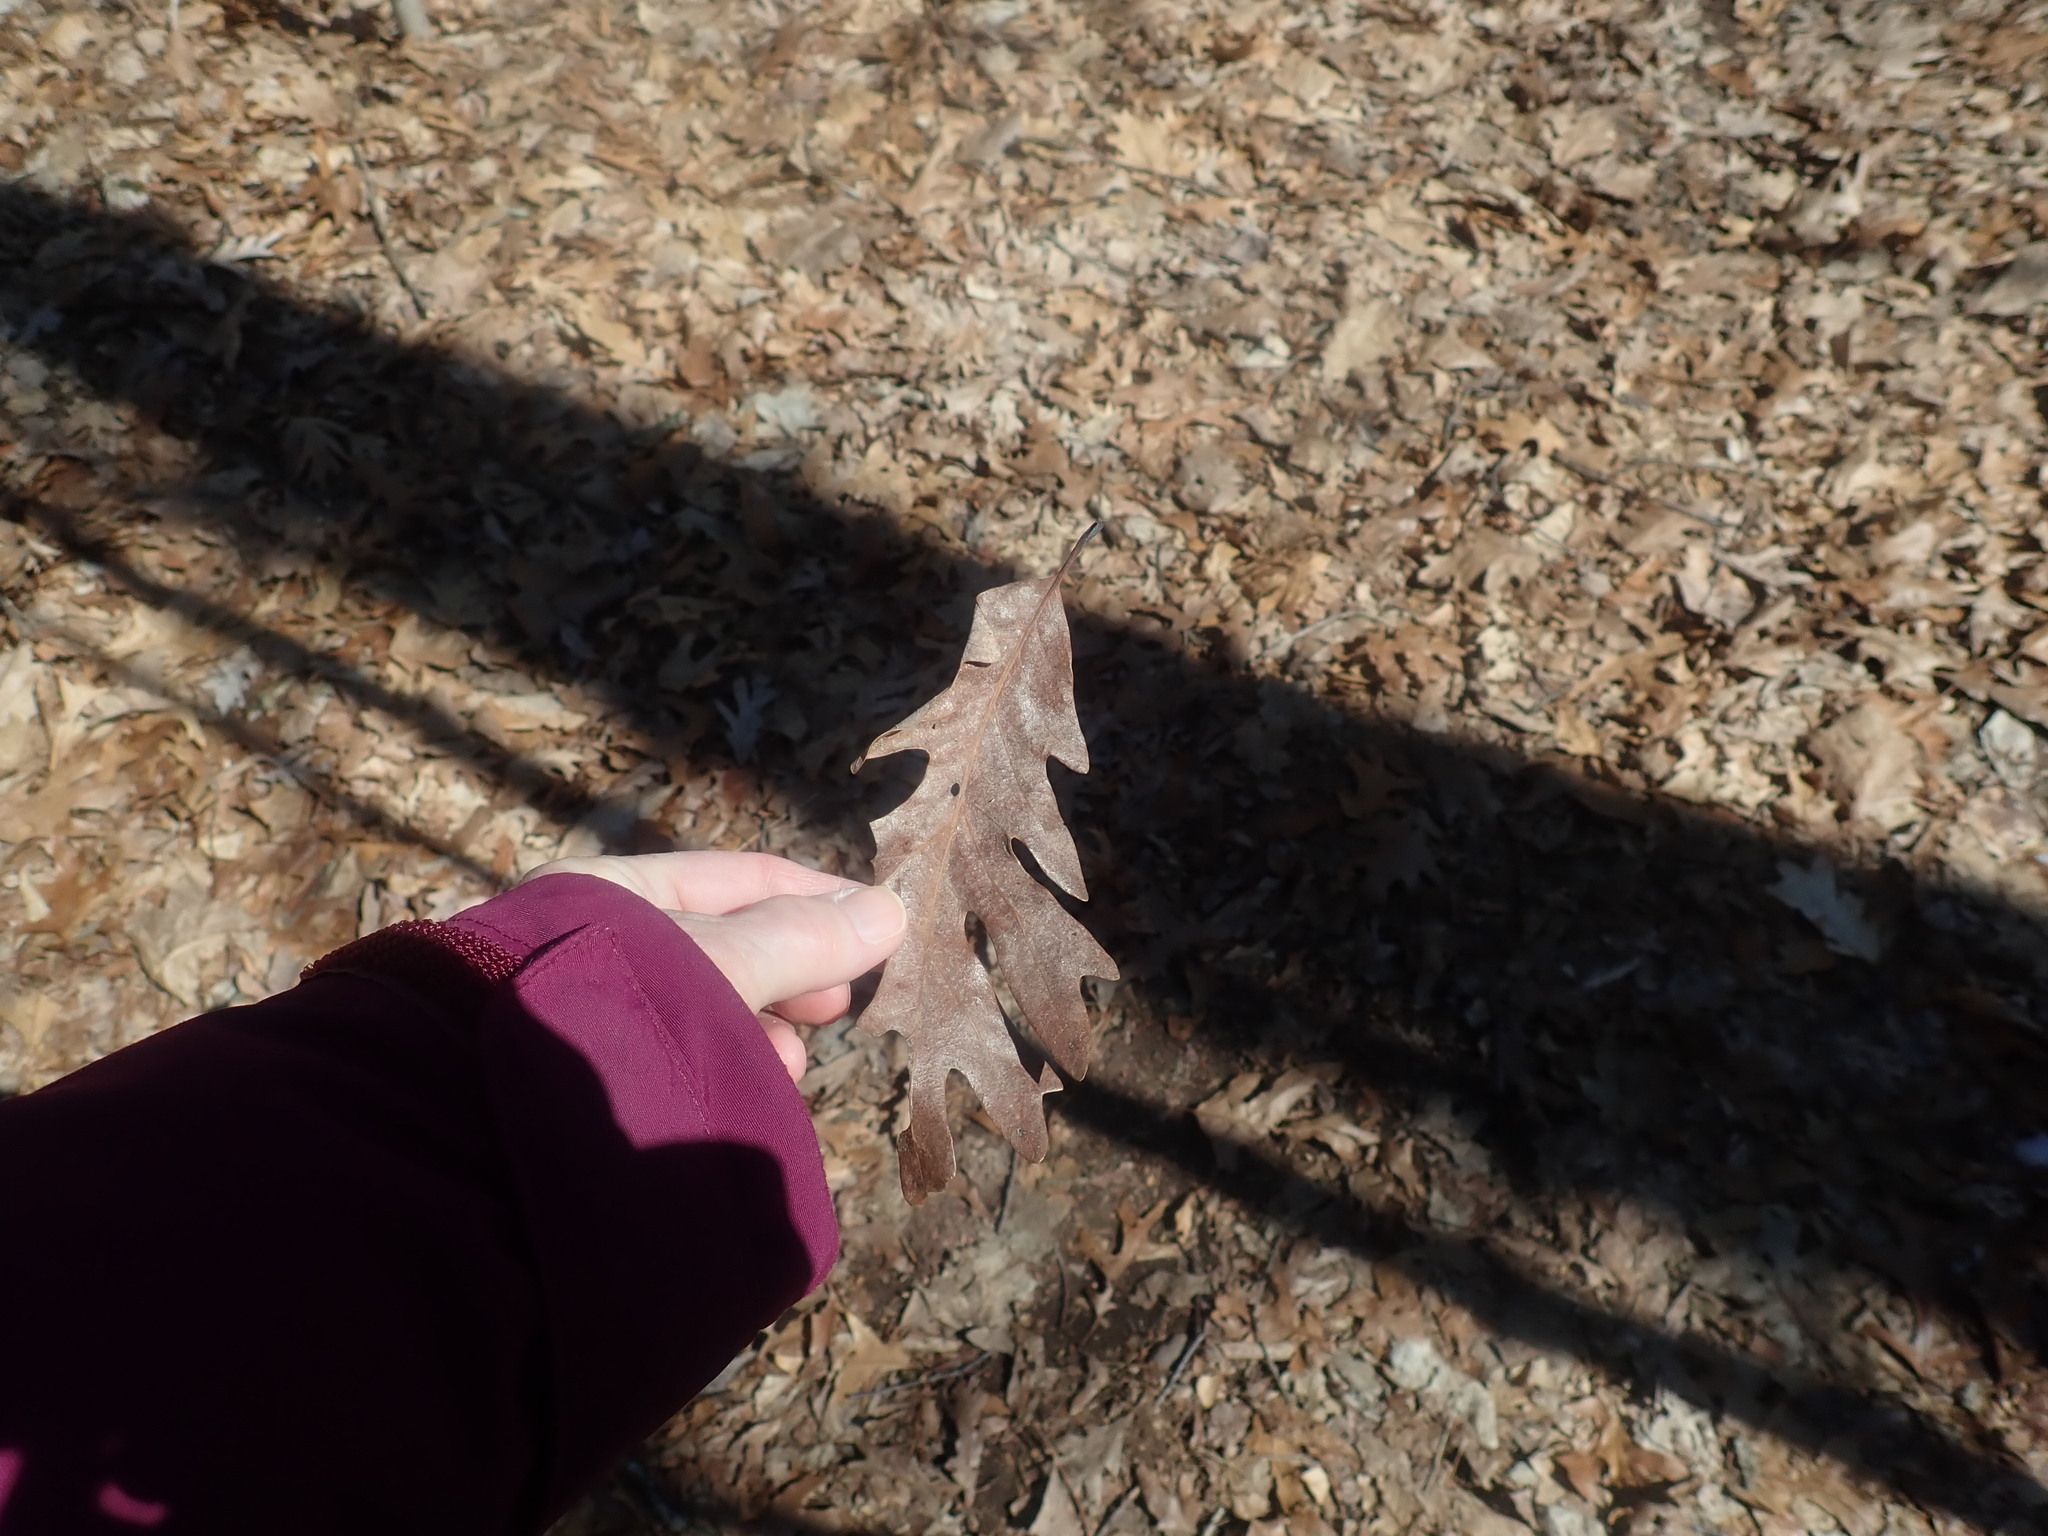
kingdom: Plantae
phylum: Tracheophyta
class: Magnoliopsida
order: Fagales
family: Fagaceae
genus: Quercus
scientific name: Quercus alba
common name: White oak
